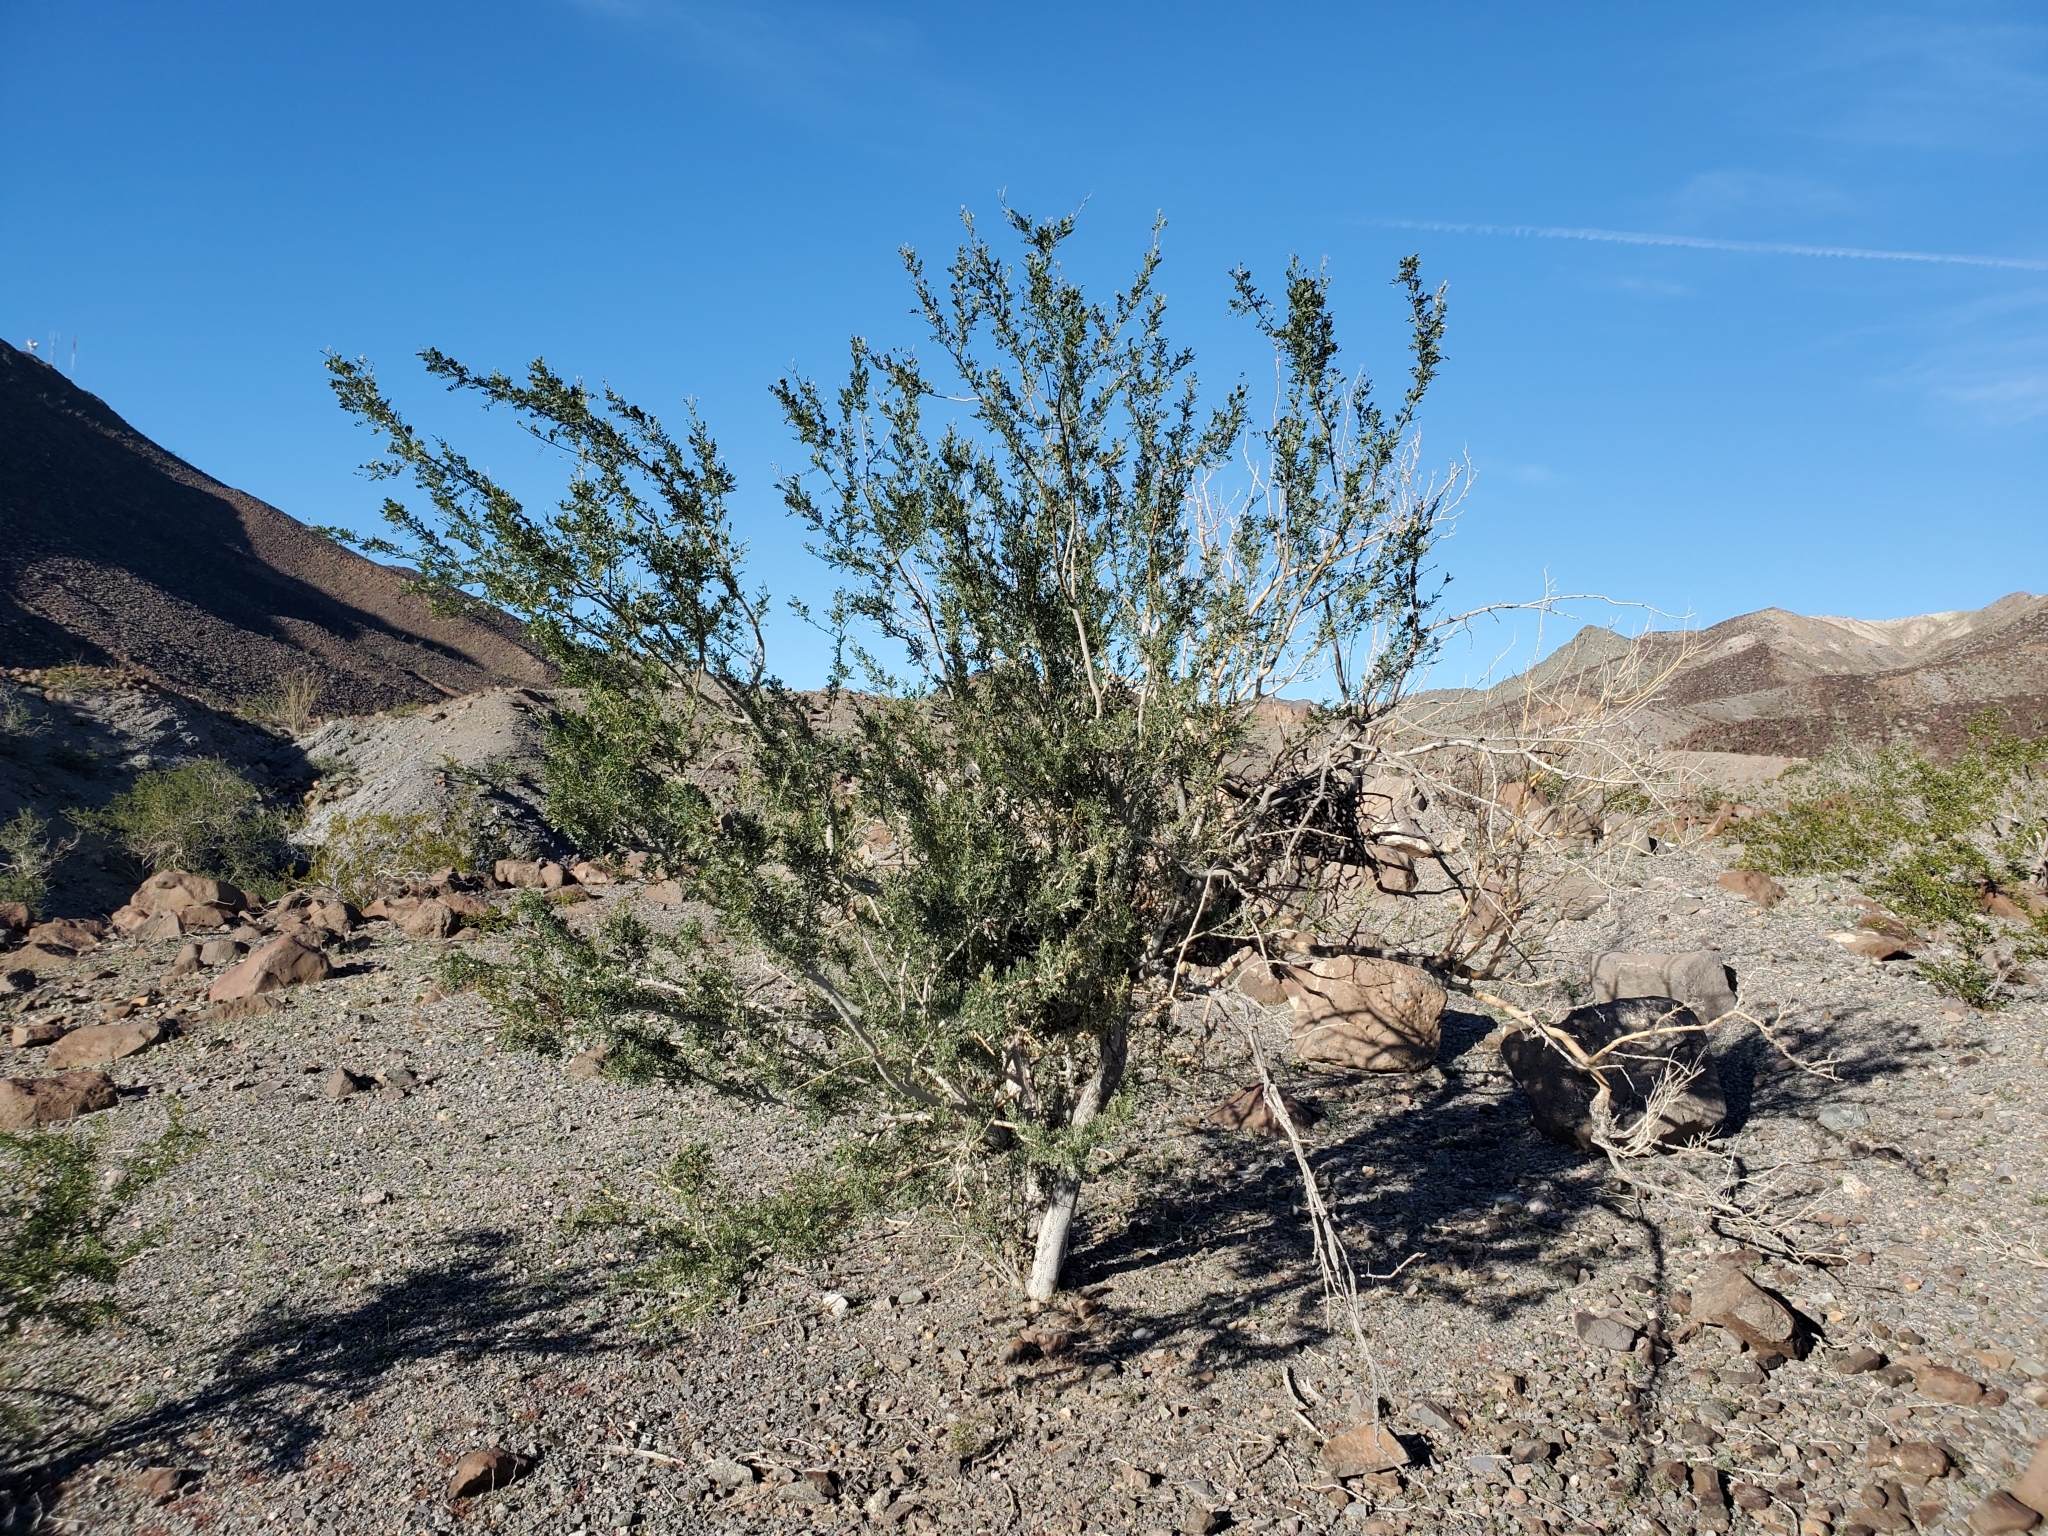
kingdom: Plantae
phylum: Tracheophyta
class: Magnoliopsida
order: Fabales
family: Fabaceae
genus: Olneya
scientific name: Olneya tesota
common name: Desert ironwood
